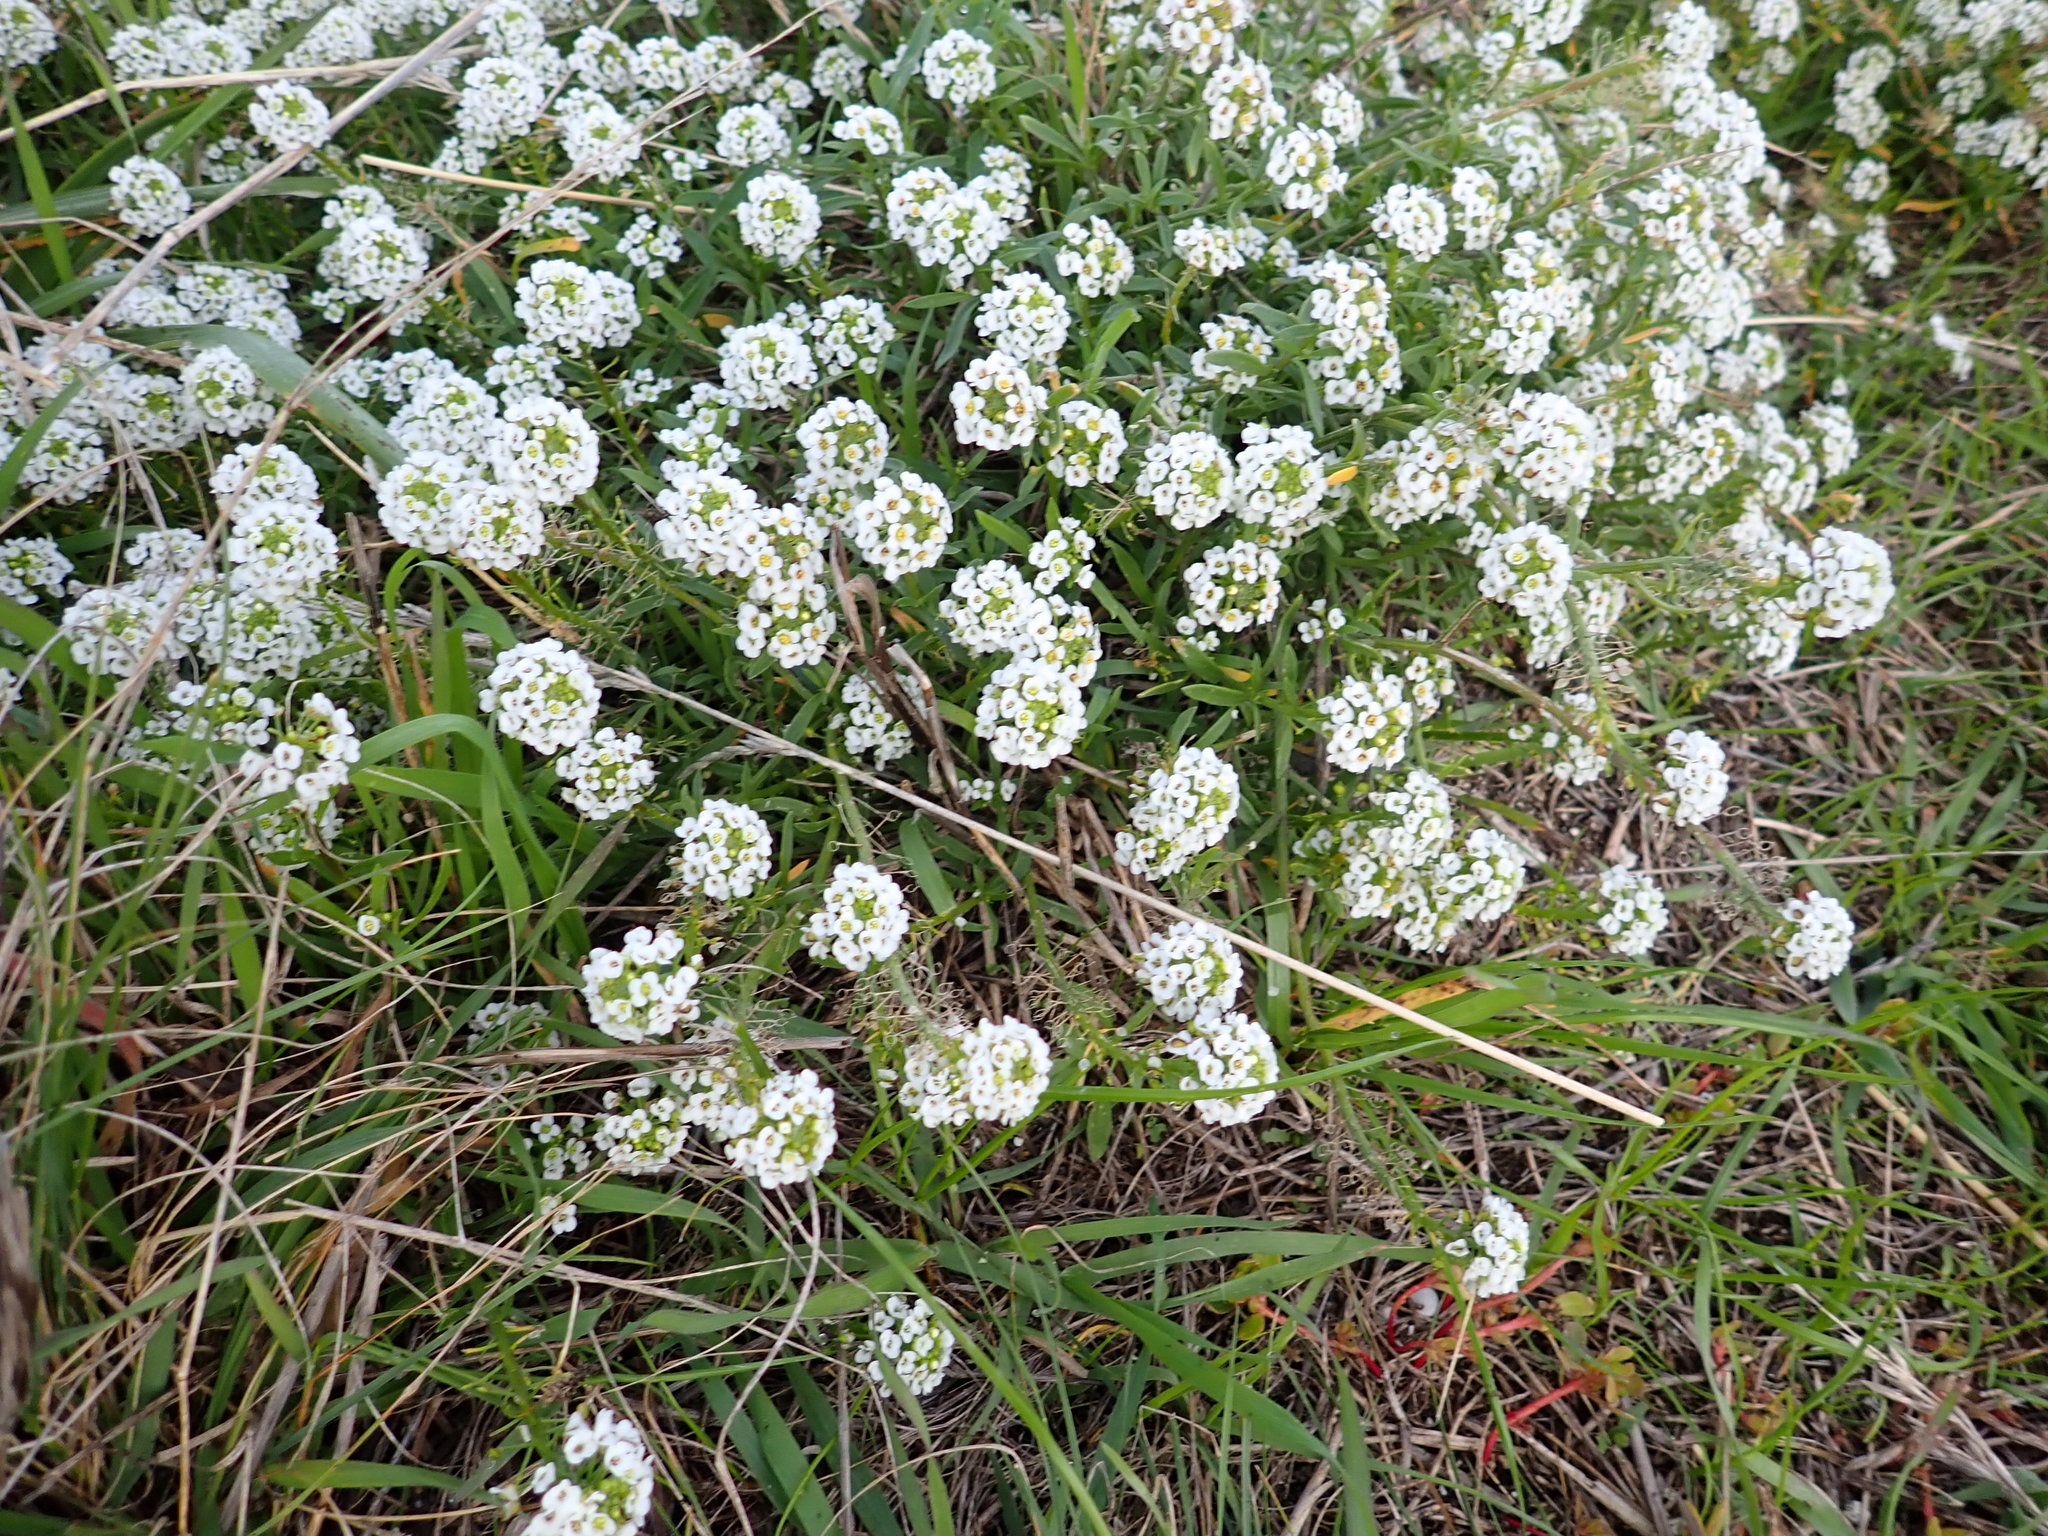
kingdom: Plantae
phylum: Tracheophyta
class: Magnoliopsida
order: Brassicales
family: Brassicaceae
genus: Lobularia
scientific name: Lobularia maritima
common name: Sweet alison
